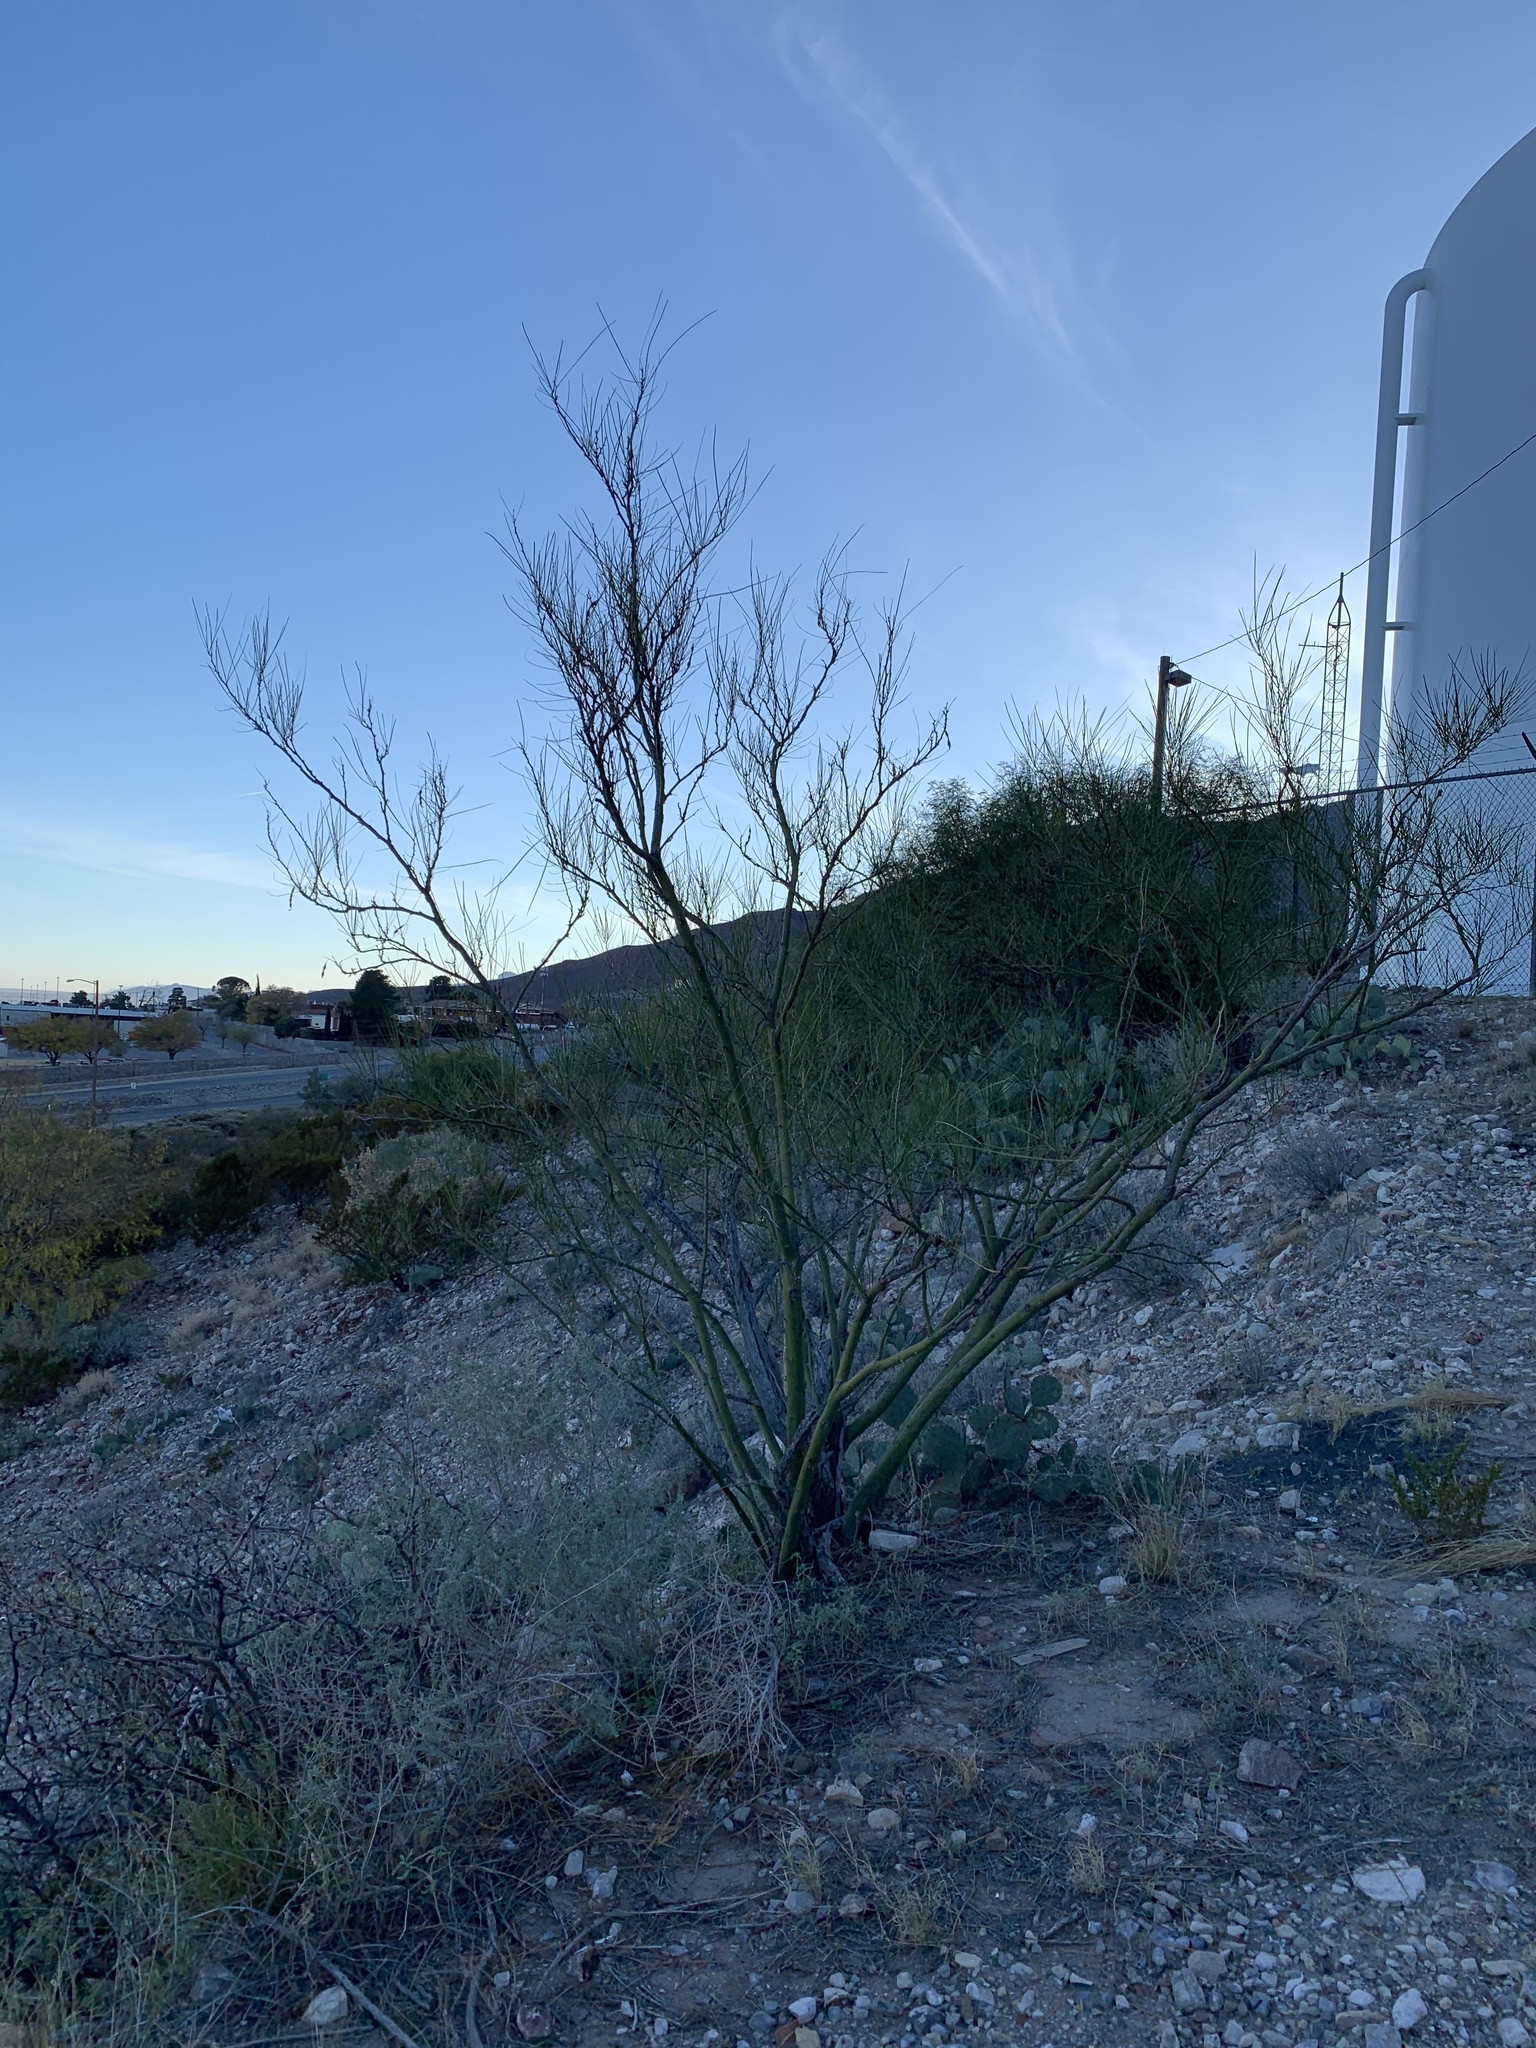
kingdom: Plantae
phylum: Tracheophyta
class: Magnoliopsida
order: Fabales
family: Fabaceae
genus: Parkinsonia
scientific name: Parkinsonia aculeata
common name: Jerusalem thorn
